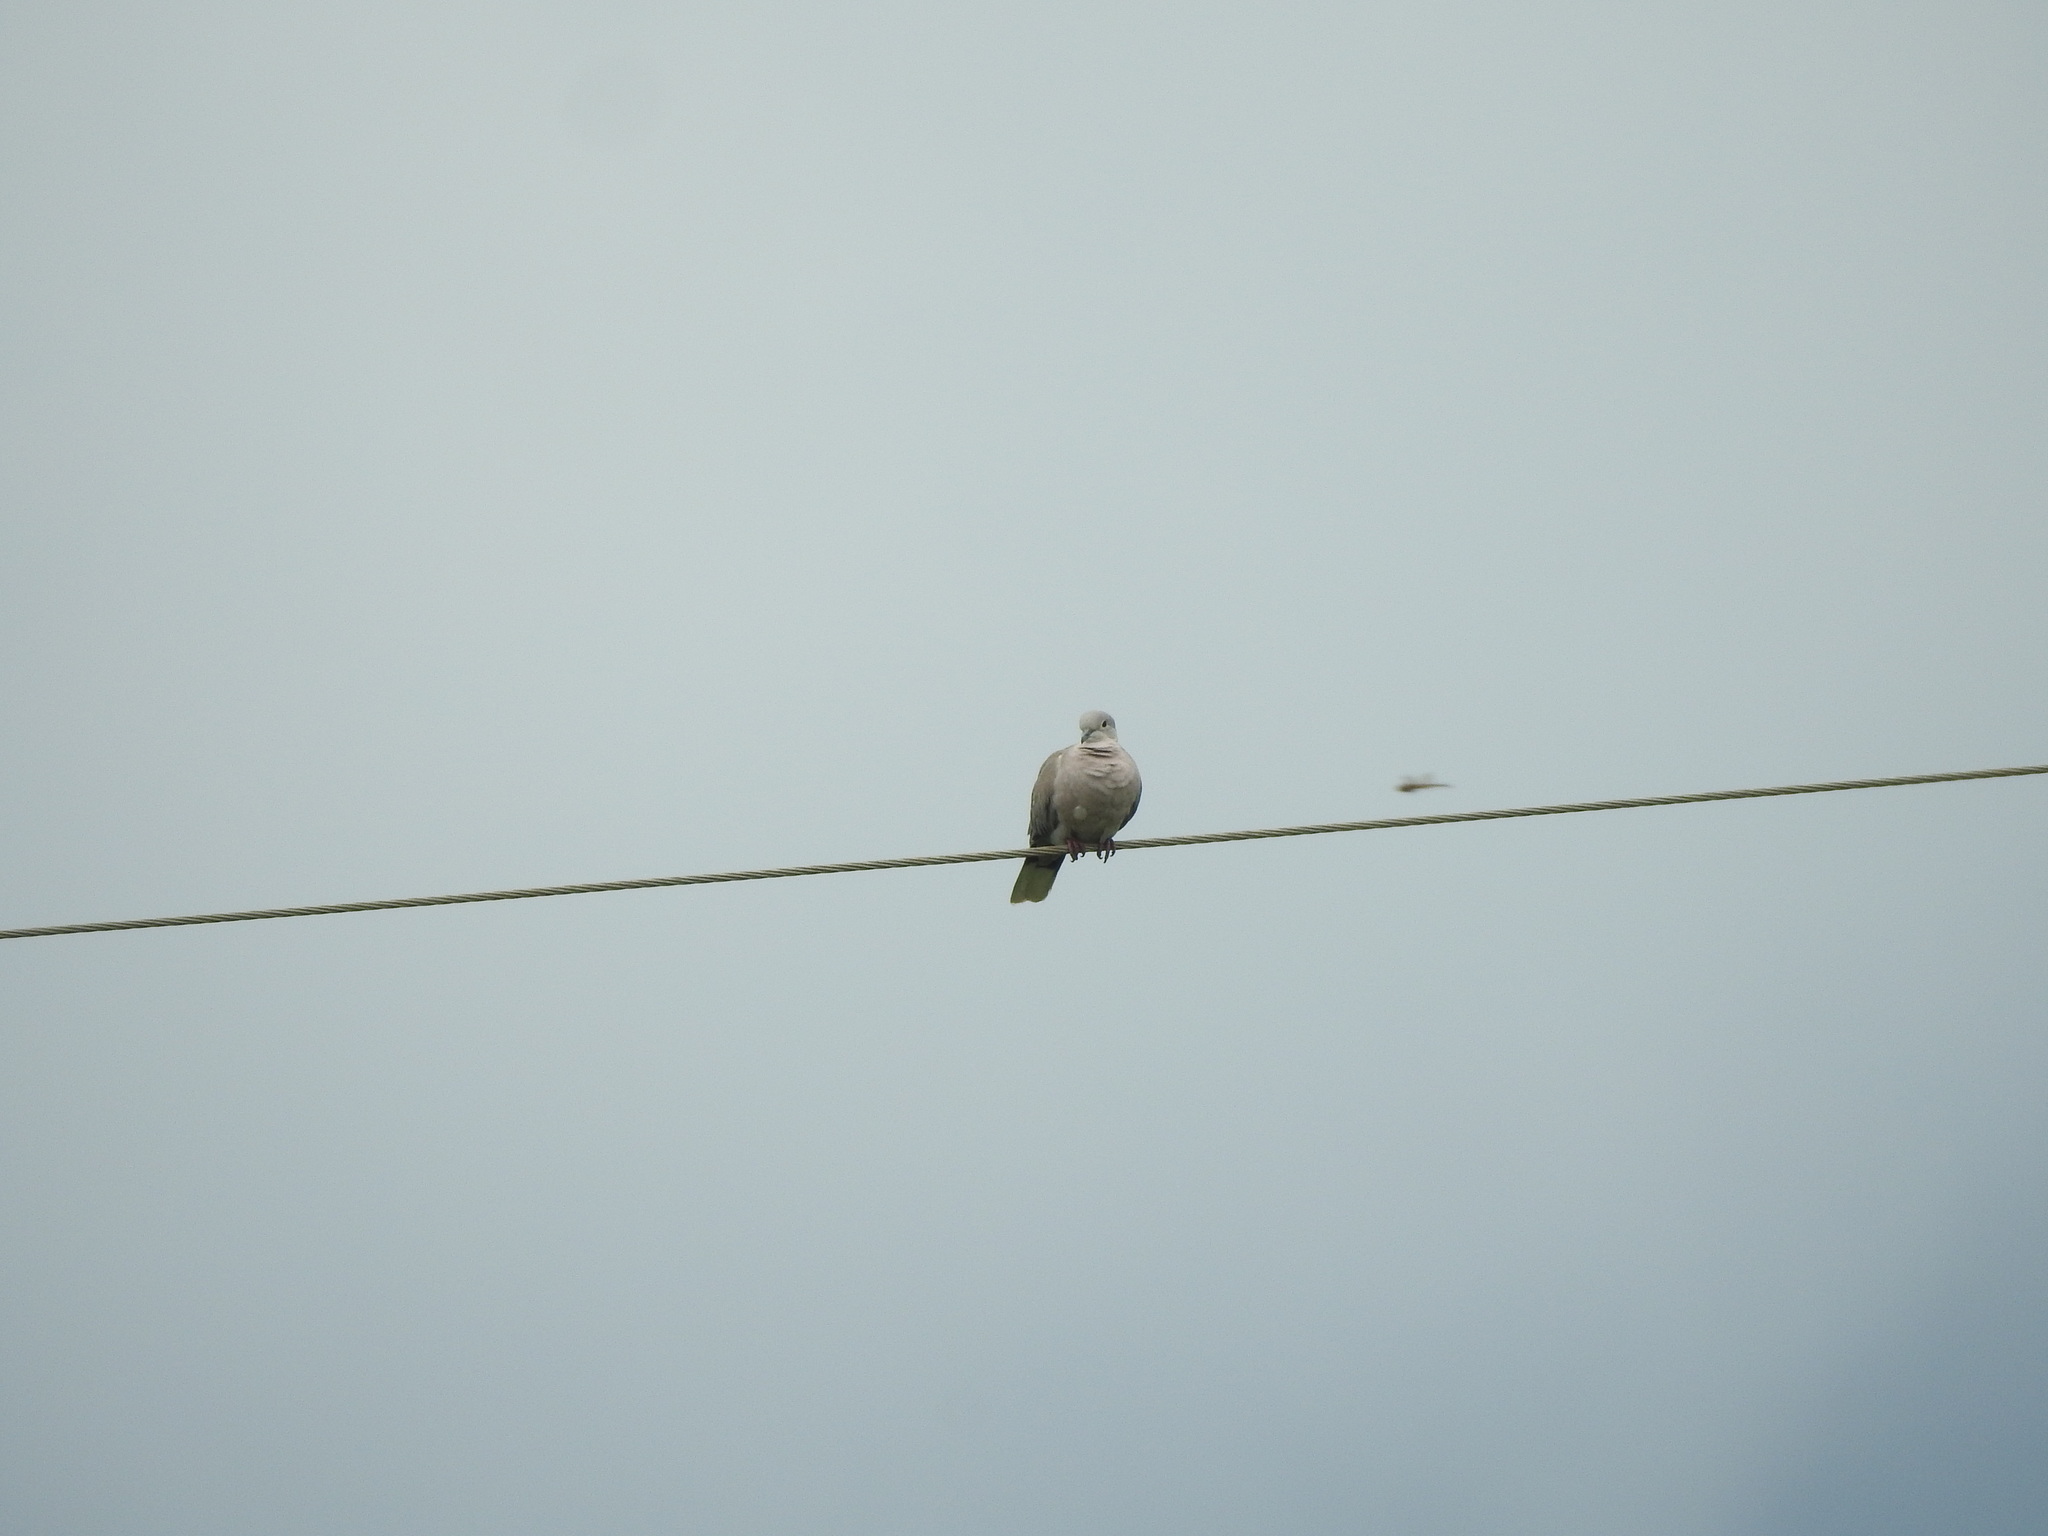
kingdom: Animalia
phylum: Chordata
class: Aves
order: Columbiformes
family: Columbidae
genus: Streptopelia
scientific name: Streptopelia decaocto
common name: Eurasian collared dove
